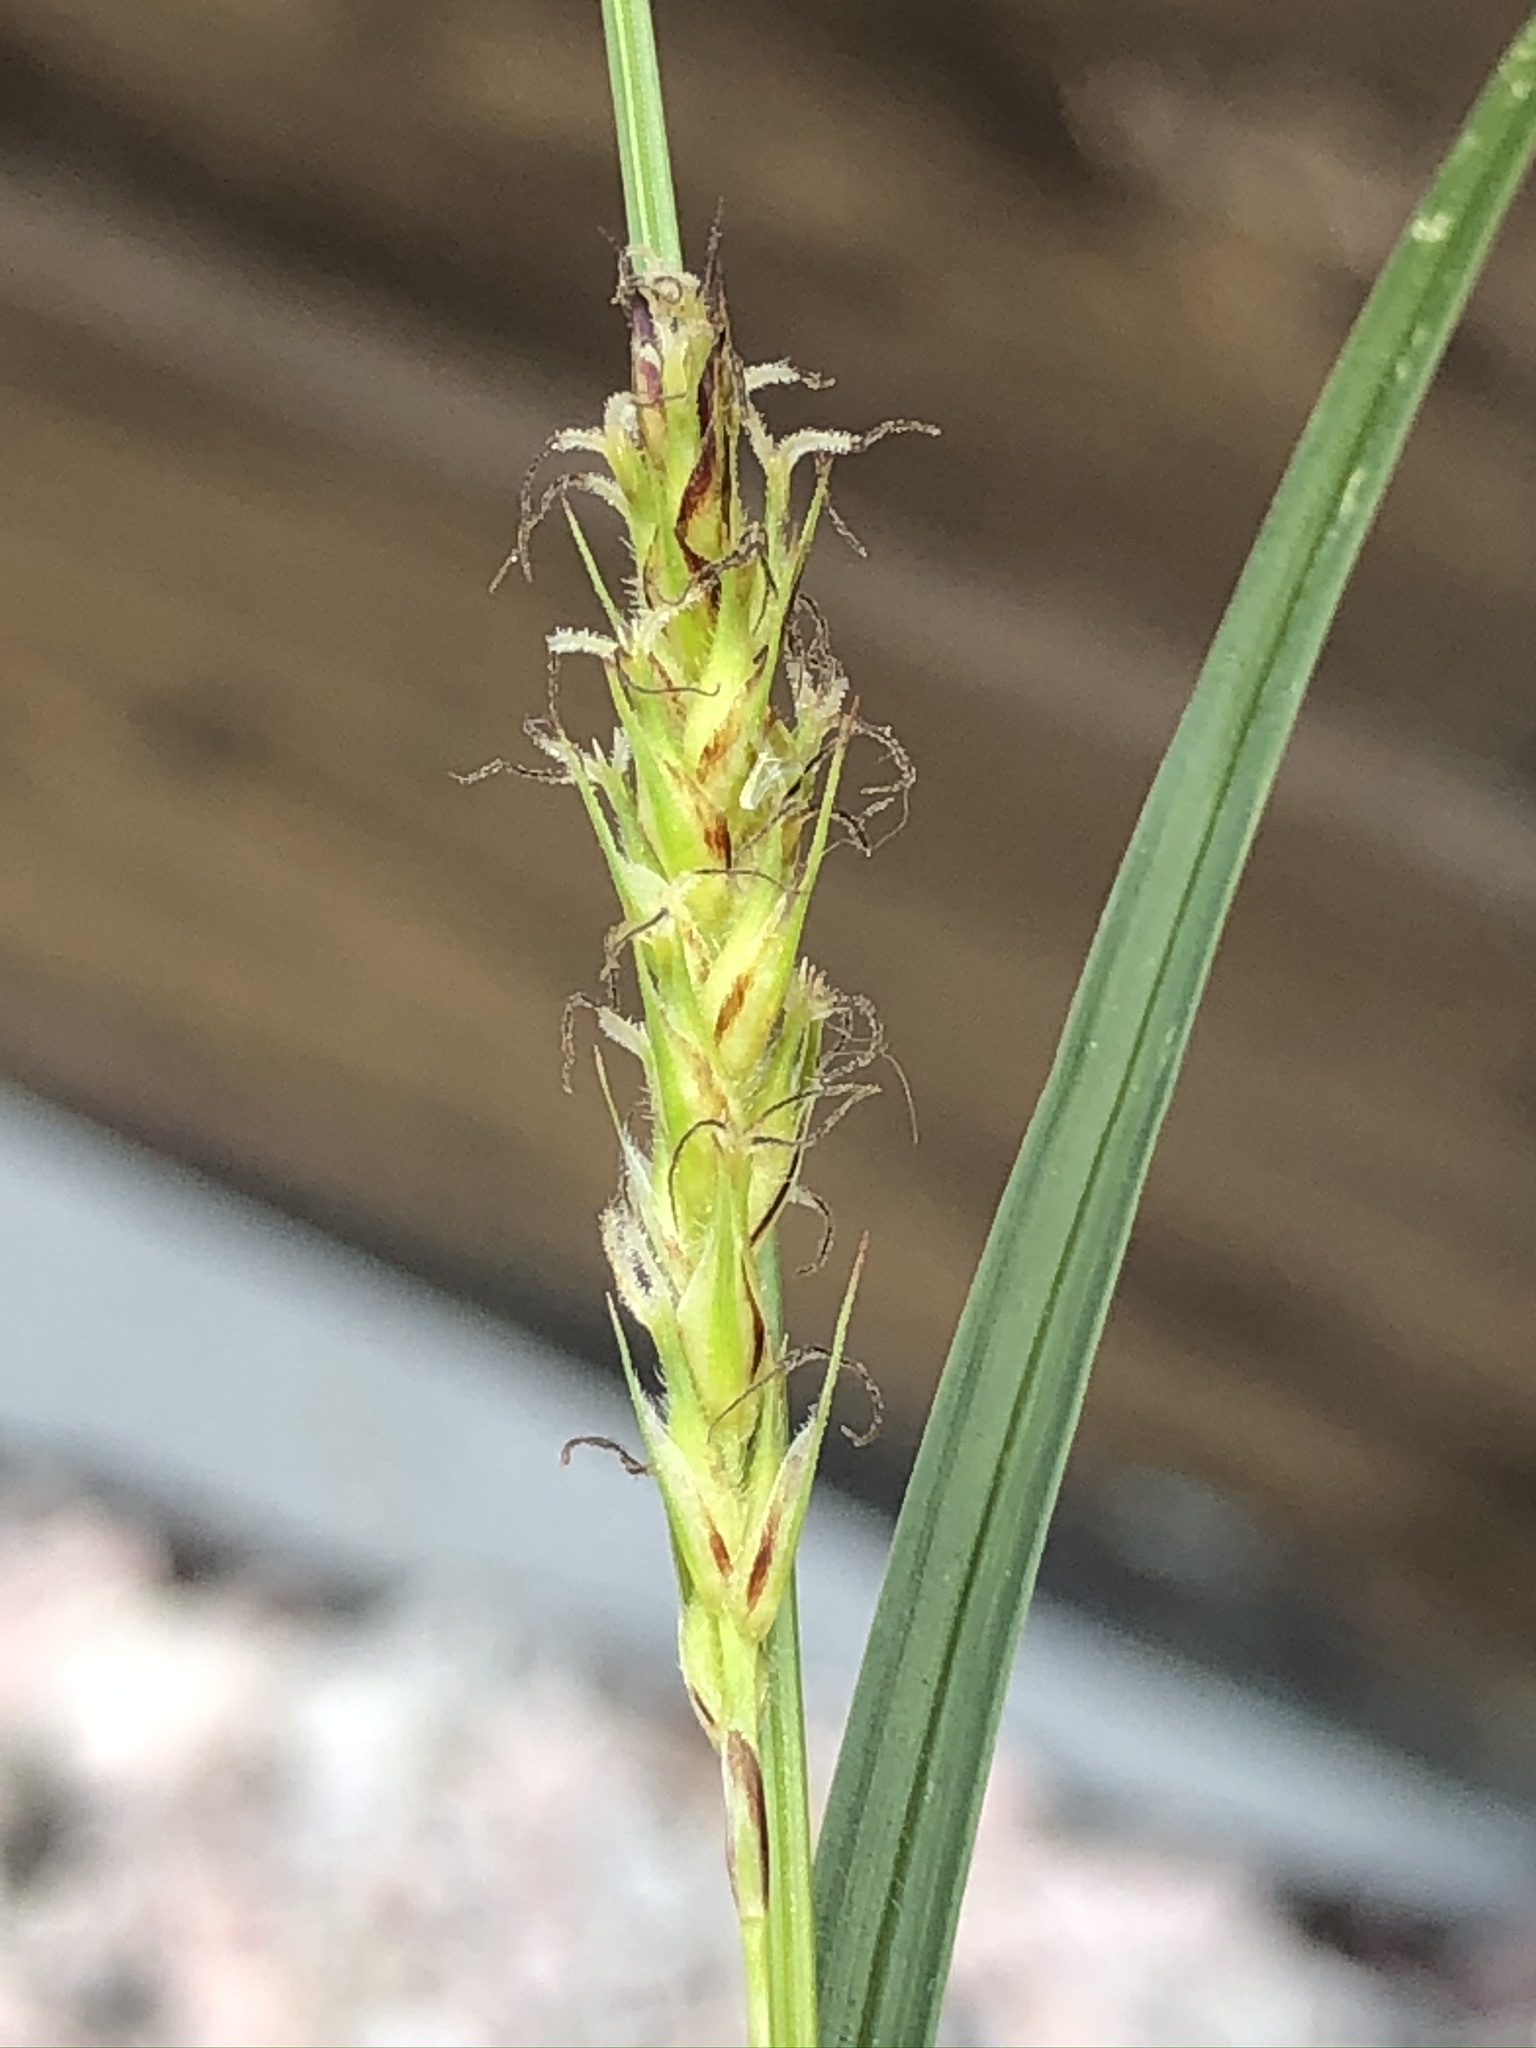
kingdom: Plantae
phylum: Tracheophyta
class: Liliopsida
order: Poales
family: Cyperaceae
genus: Carex
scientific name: Carex hirta
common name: Hairy sedge
